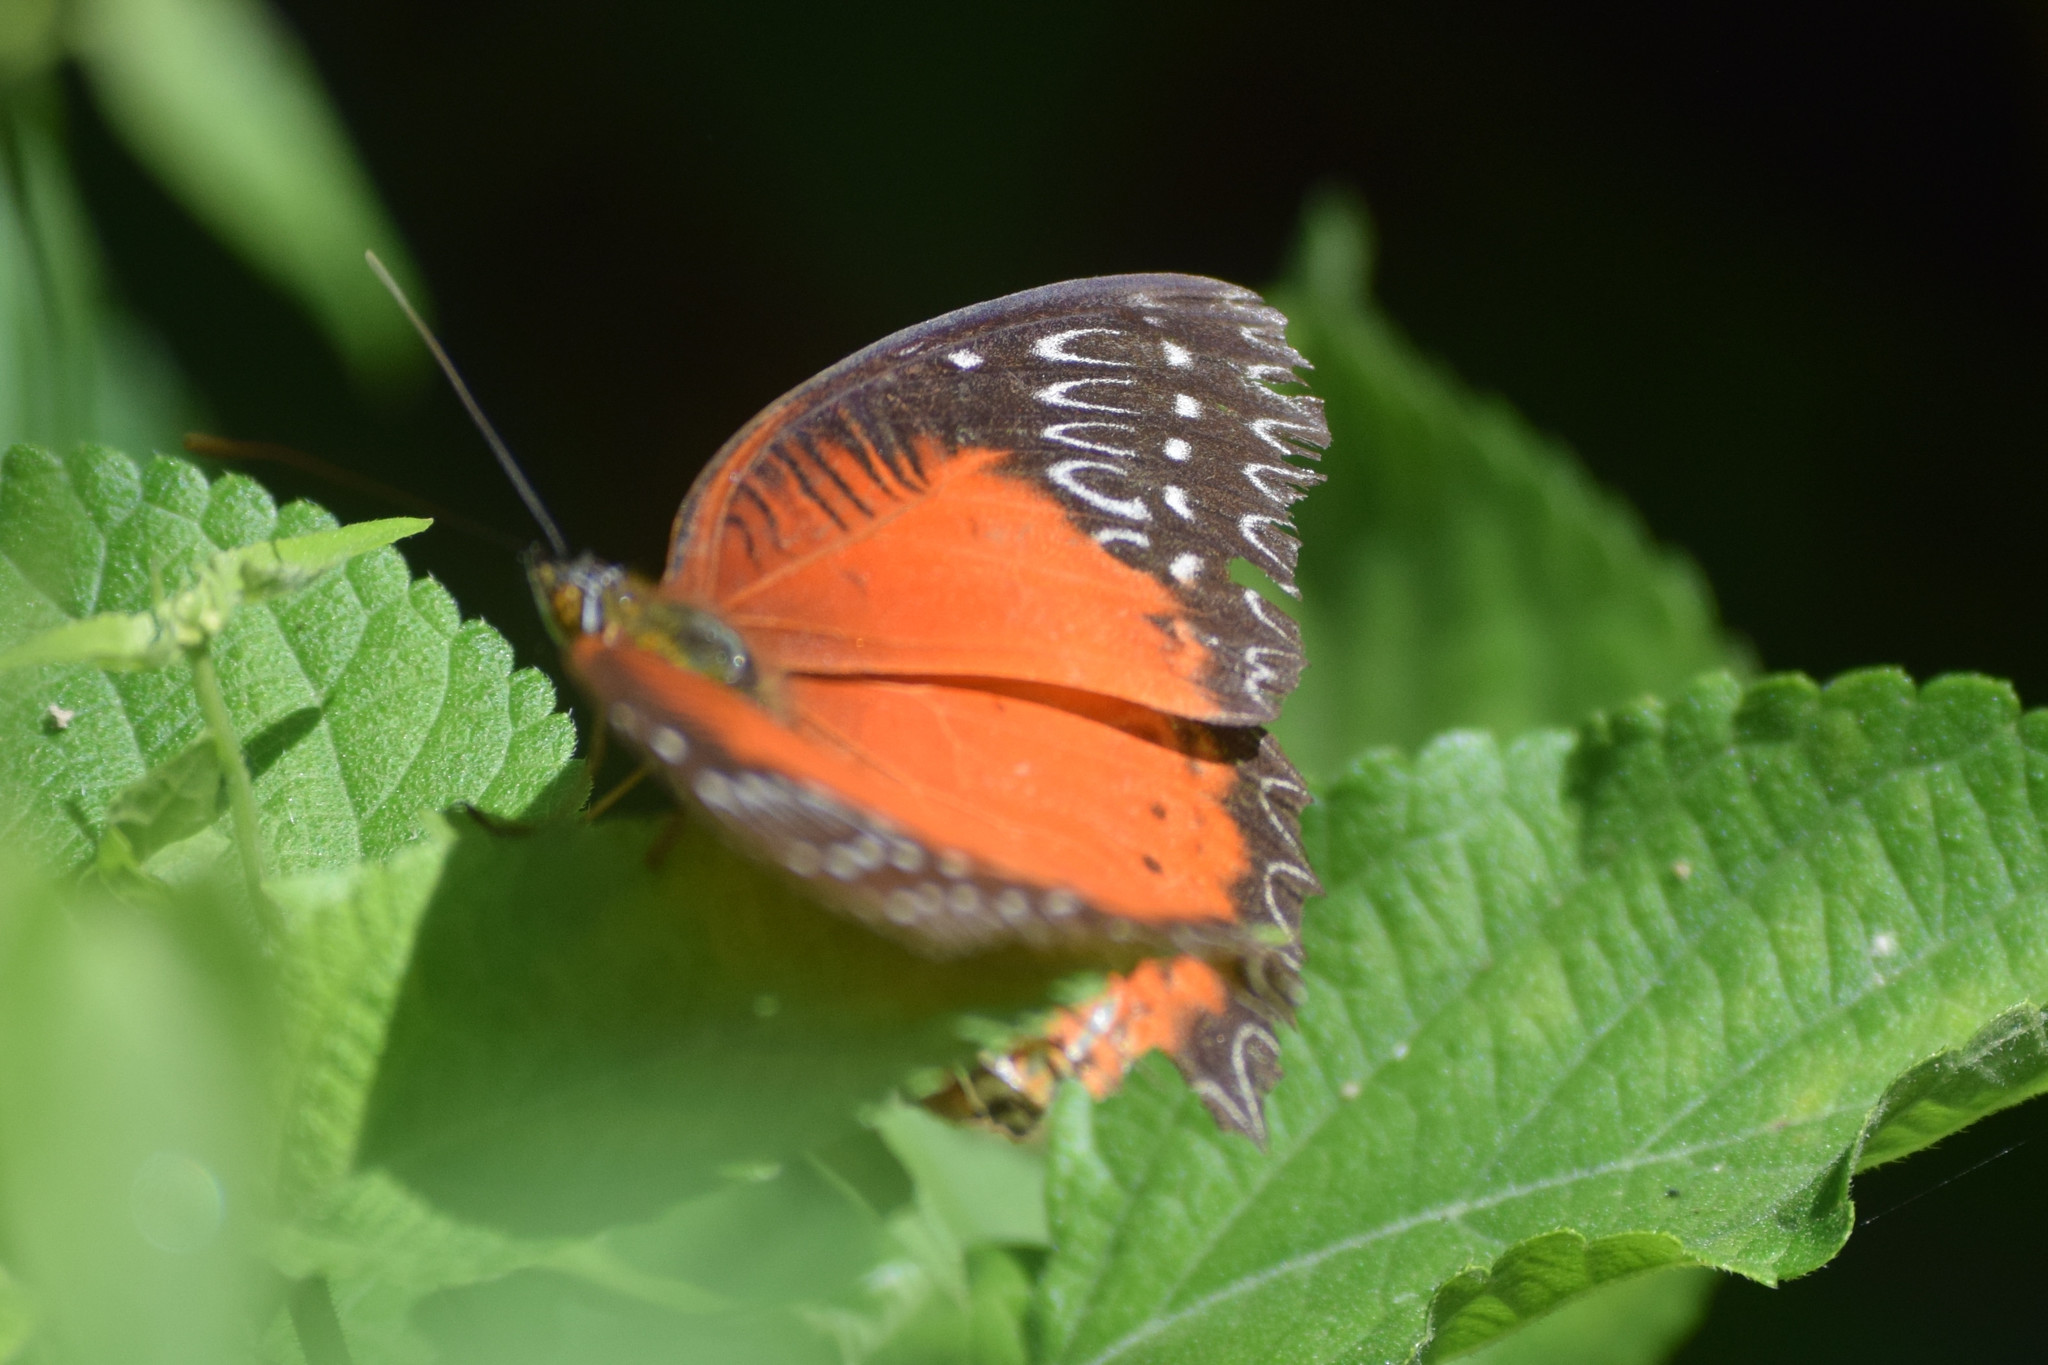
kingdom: Animalia
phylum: Arthropoda
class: Insecta
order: Lepidoptera
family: Nymphalidae
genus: Cethosia
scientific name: Cethosia biblis
